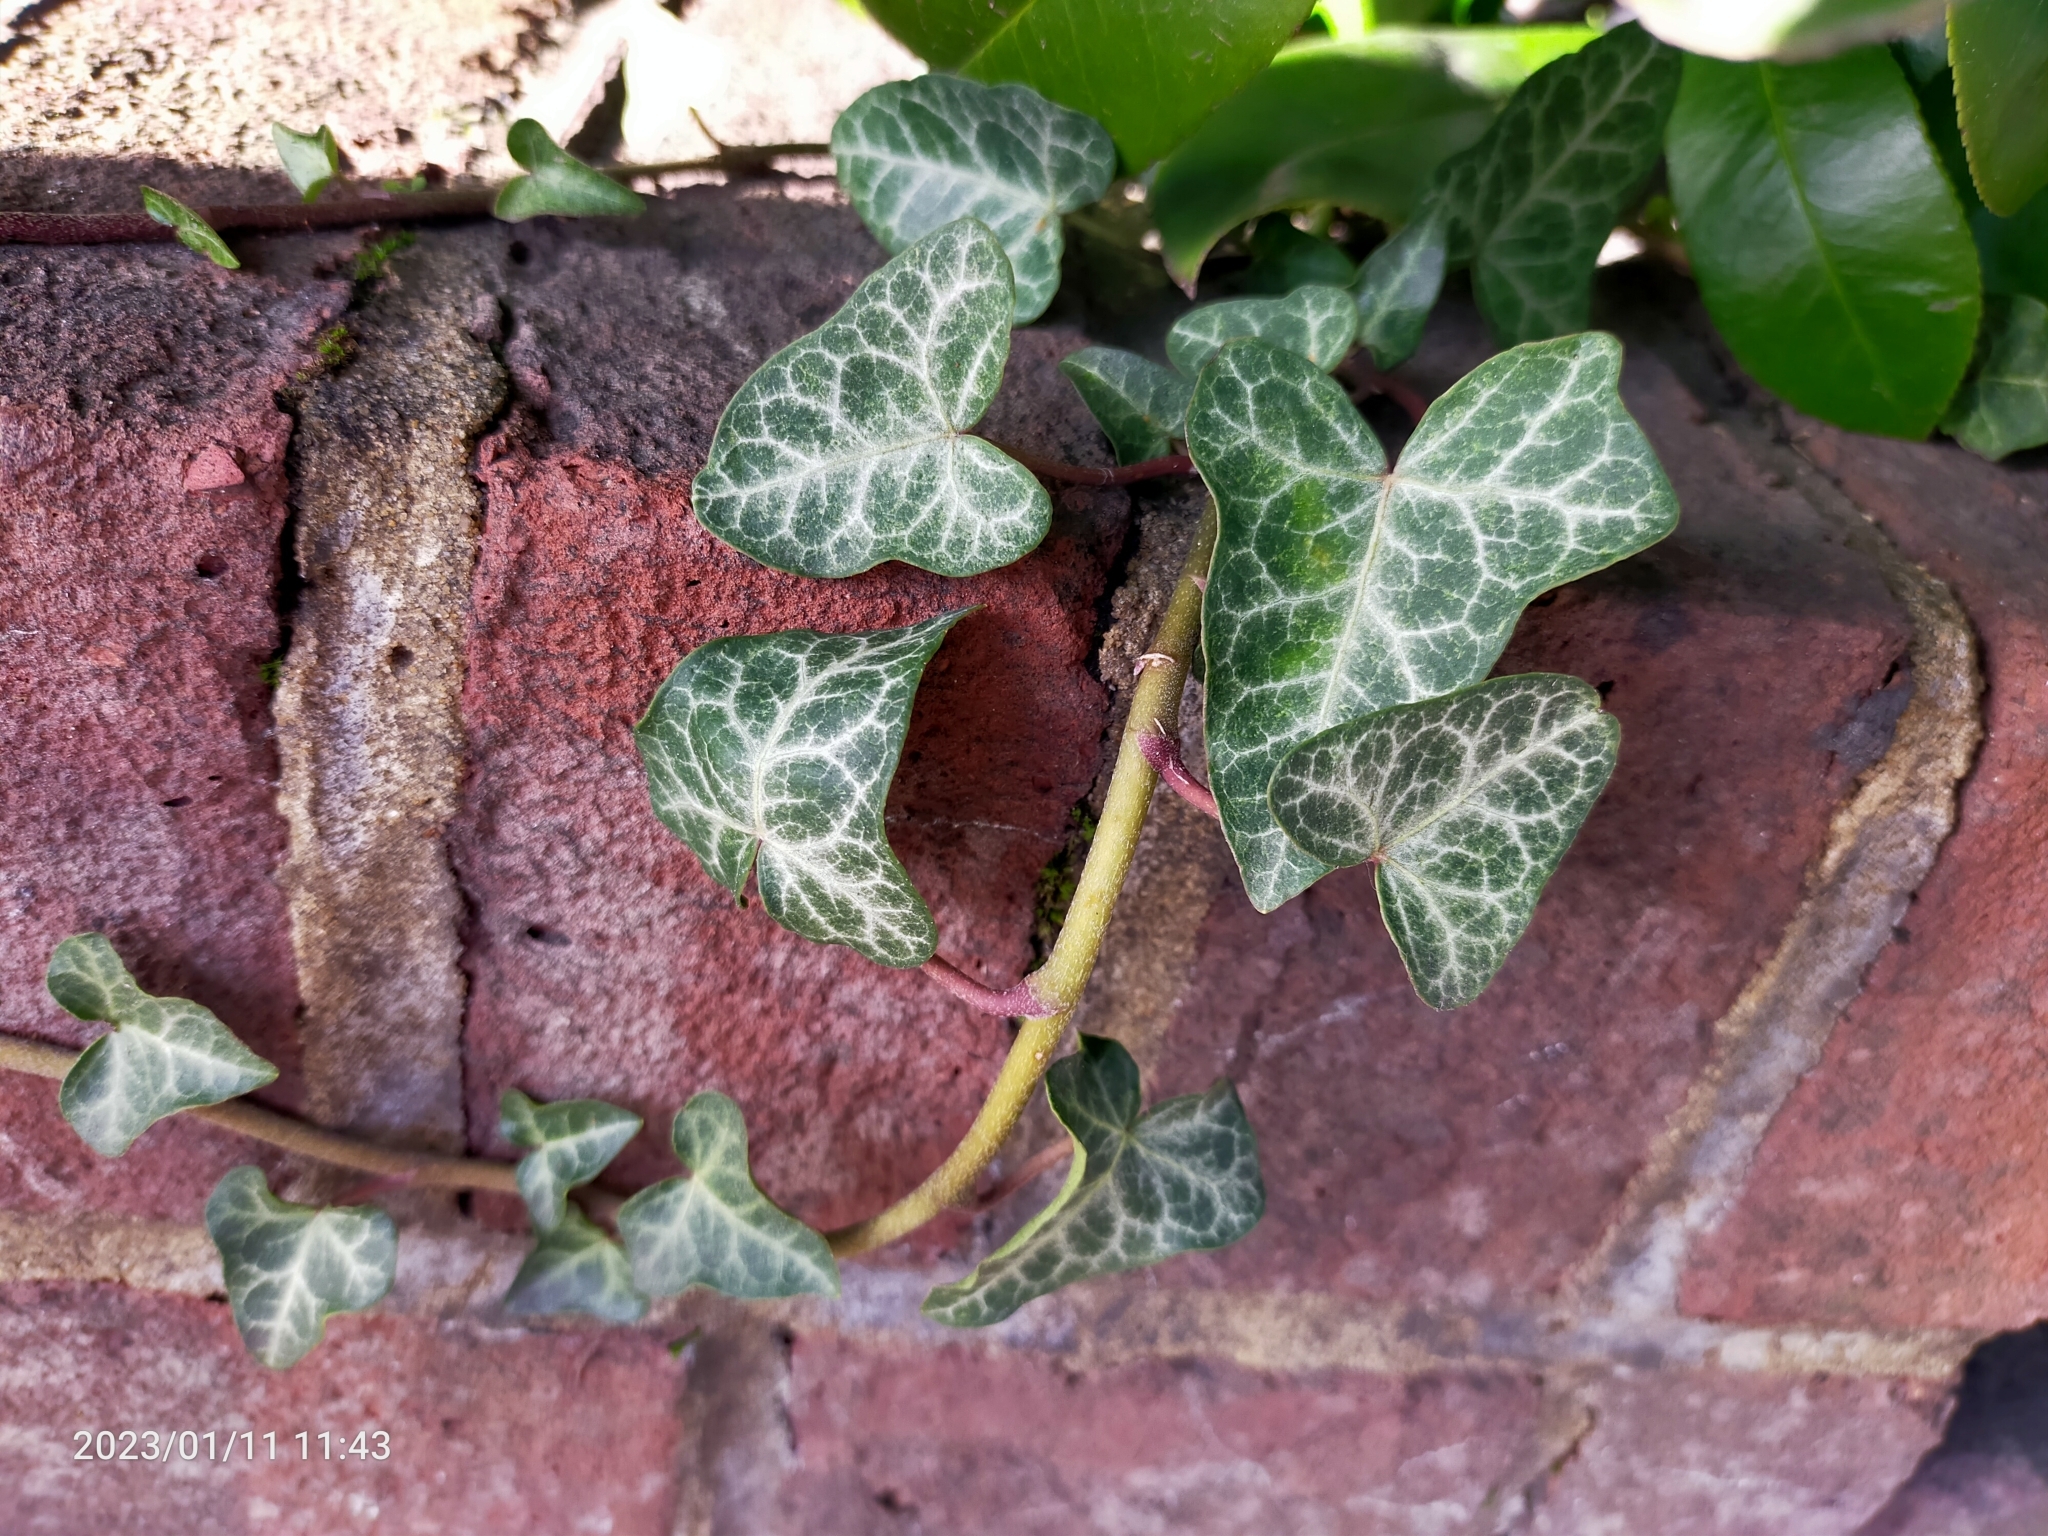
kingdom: Plantae
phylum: Tracheophyta
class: Magnoliopsida
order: Apiales
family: Araliaceae
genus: Hedera
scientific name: Hedera helix
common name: Ivy
